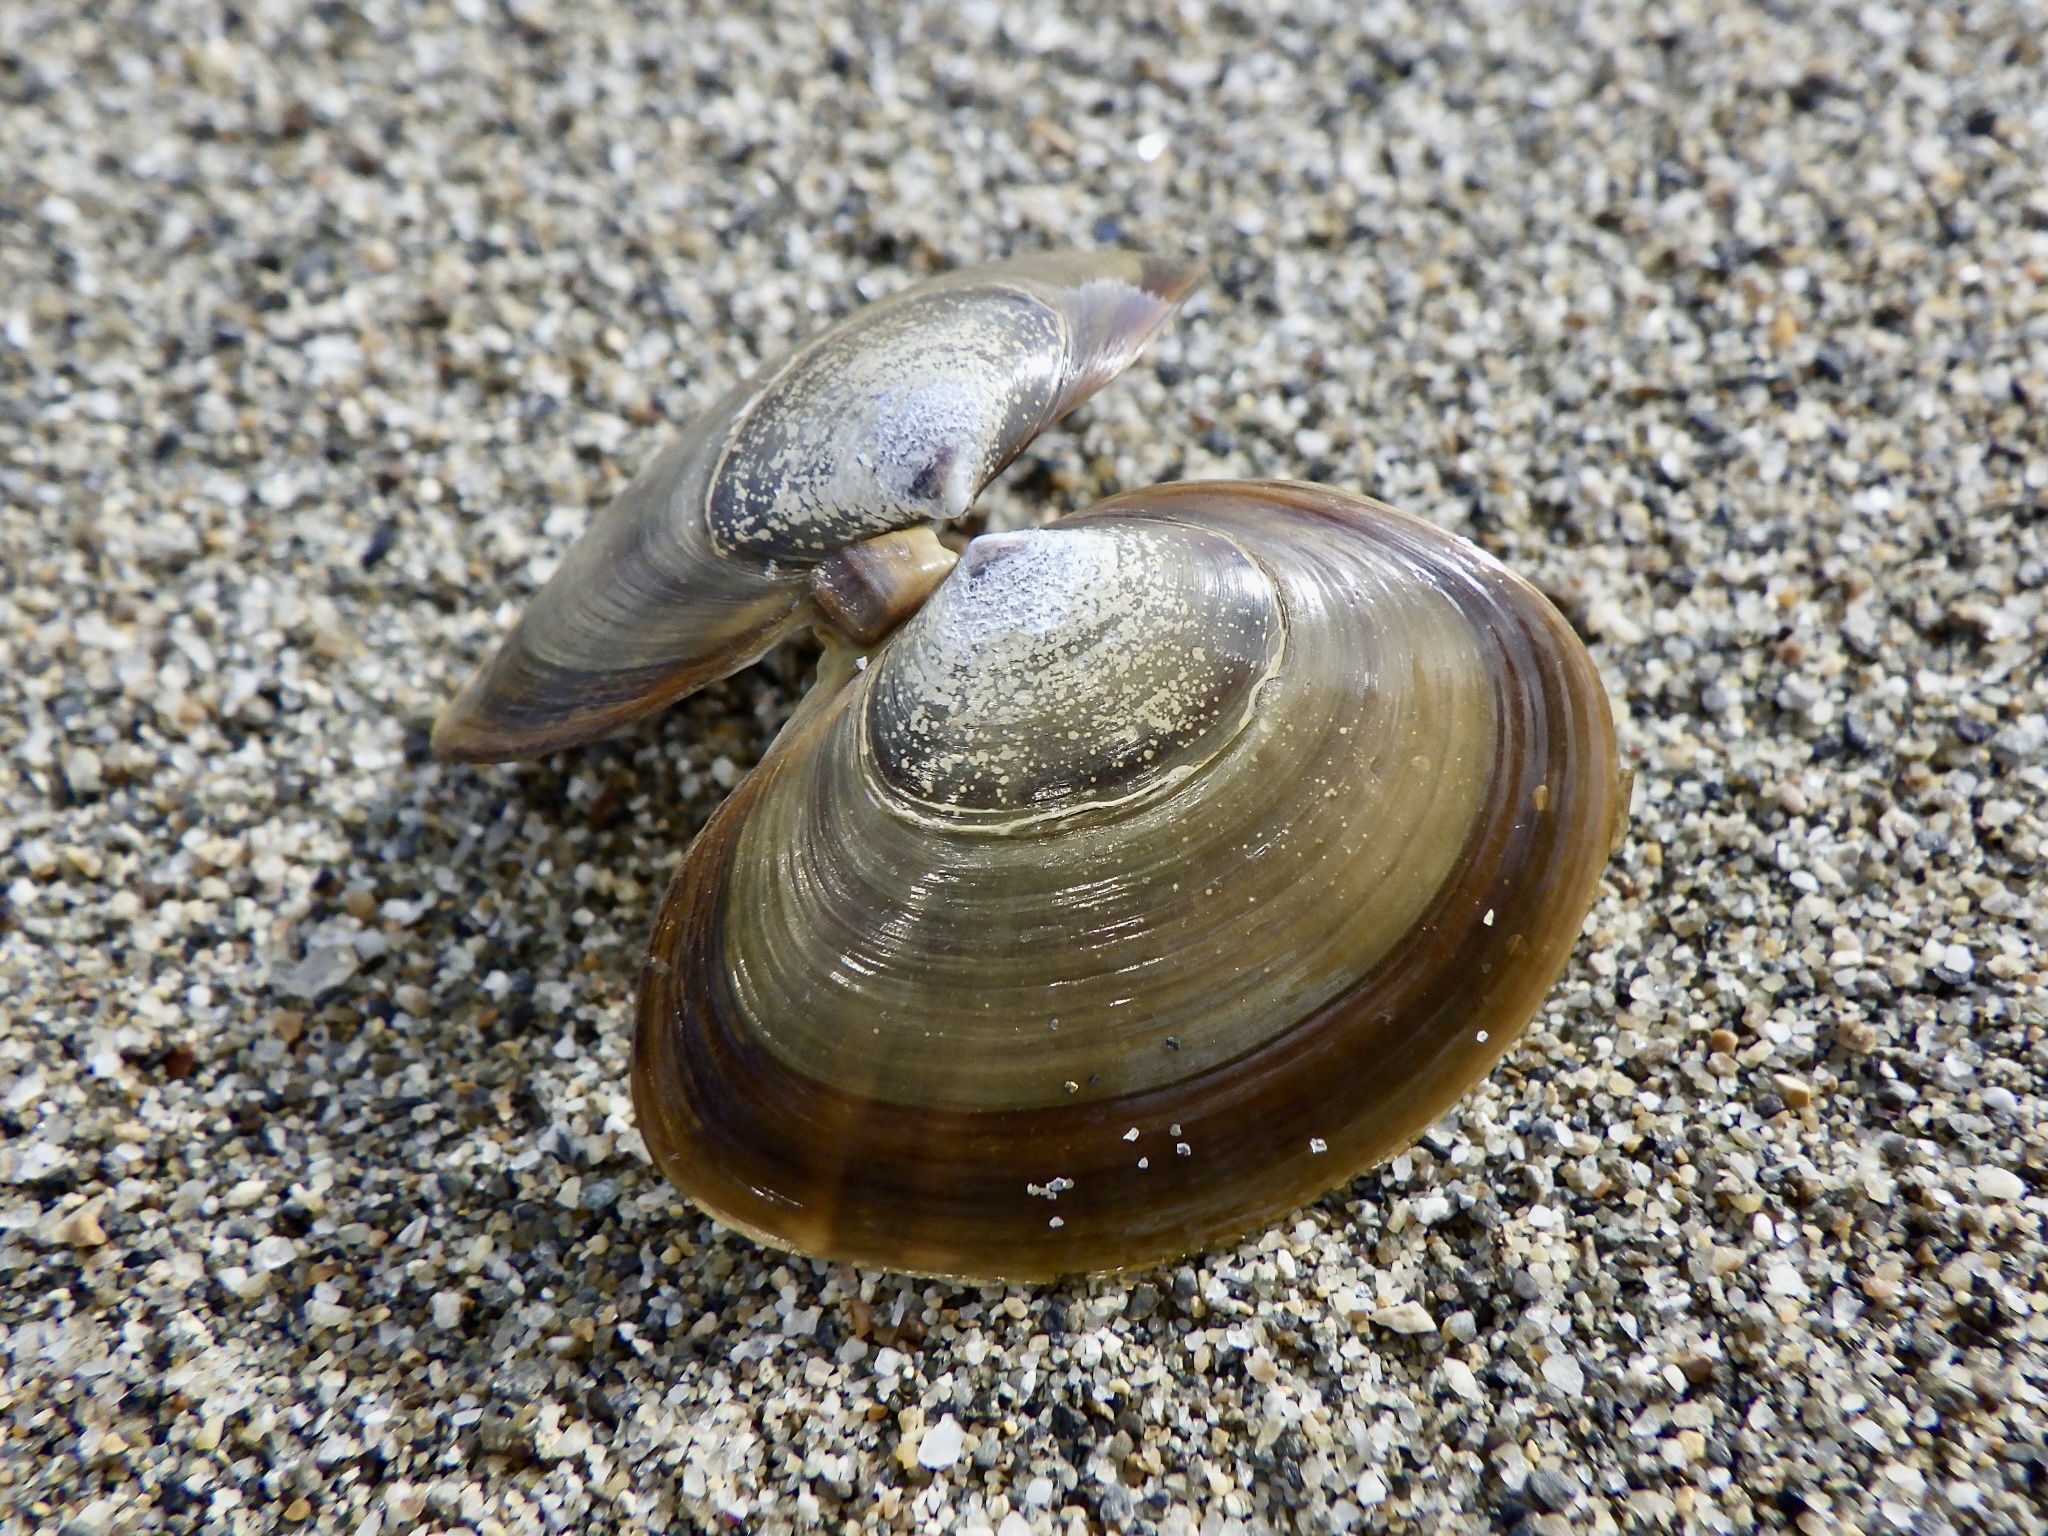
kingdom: Animalia
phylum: Mollusca
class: Bivalvia
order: Cardiida
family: Psammobiidae
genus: Nuttallia
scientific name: Nuttallia japonica
